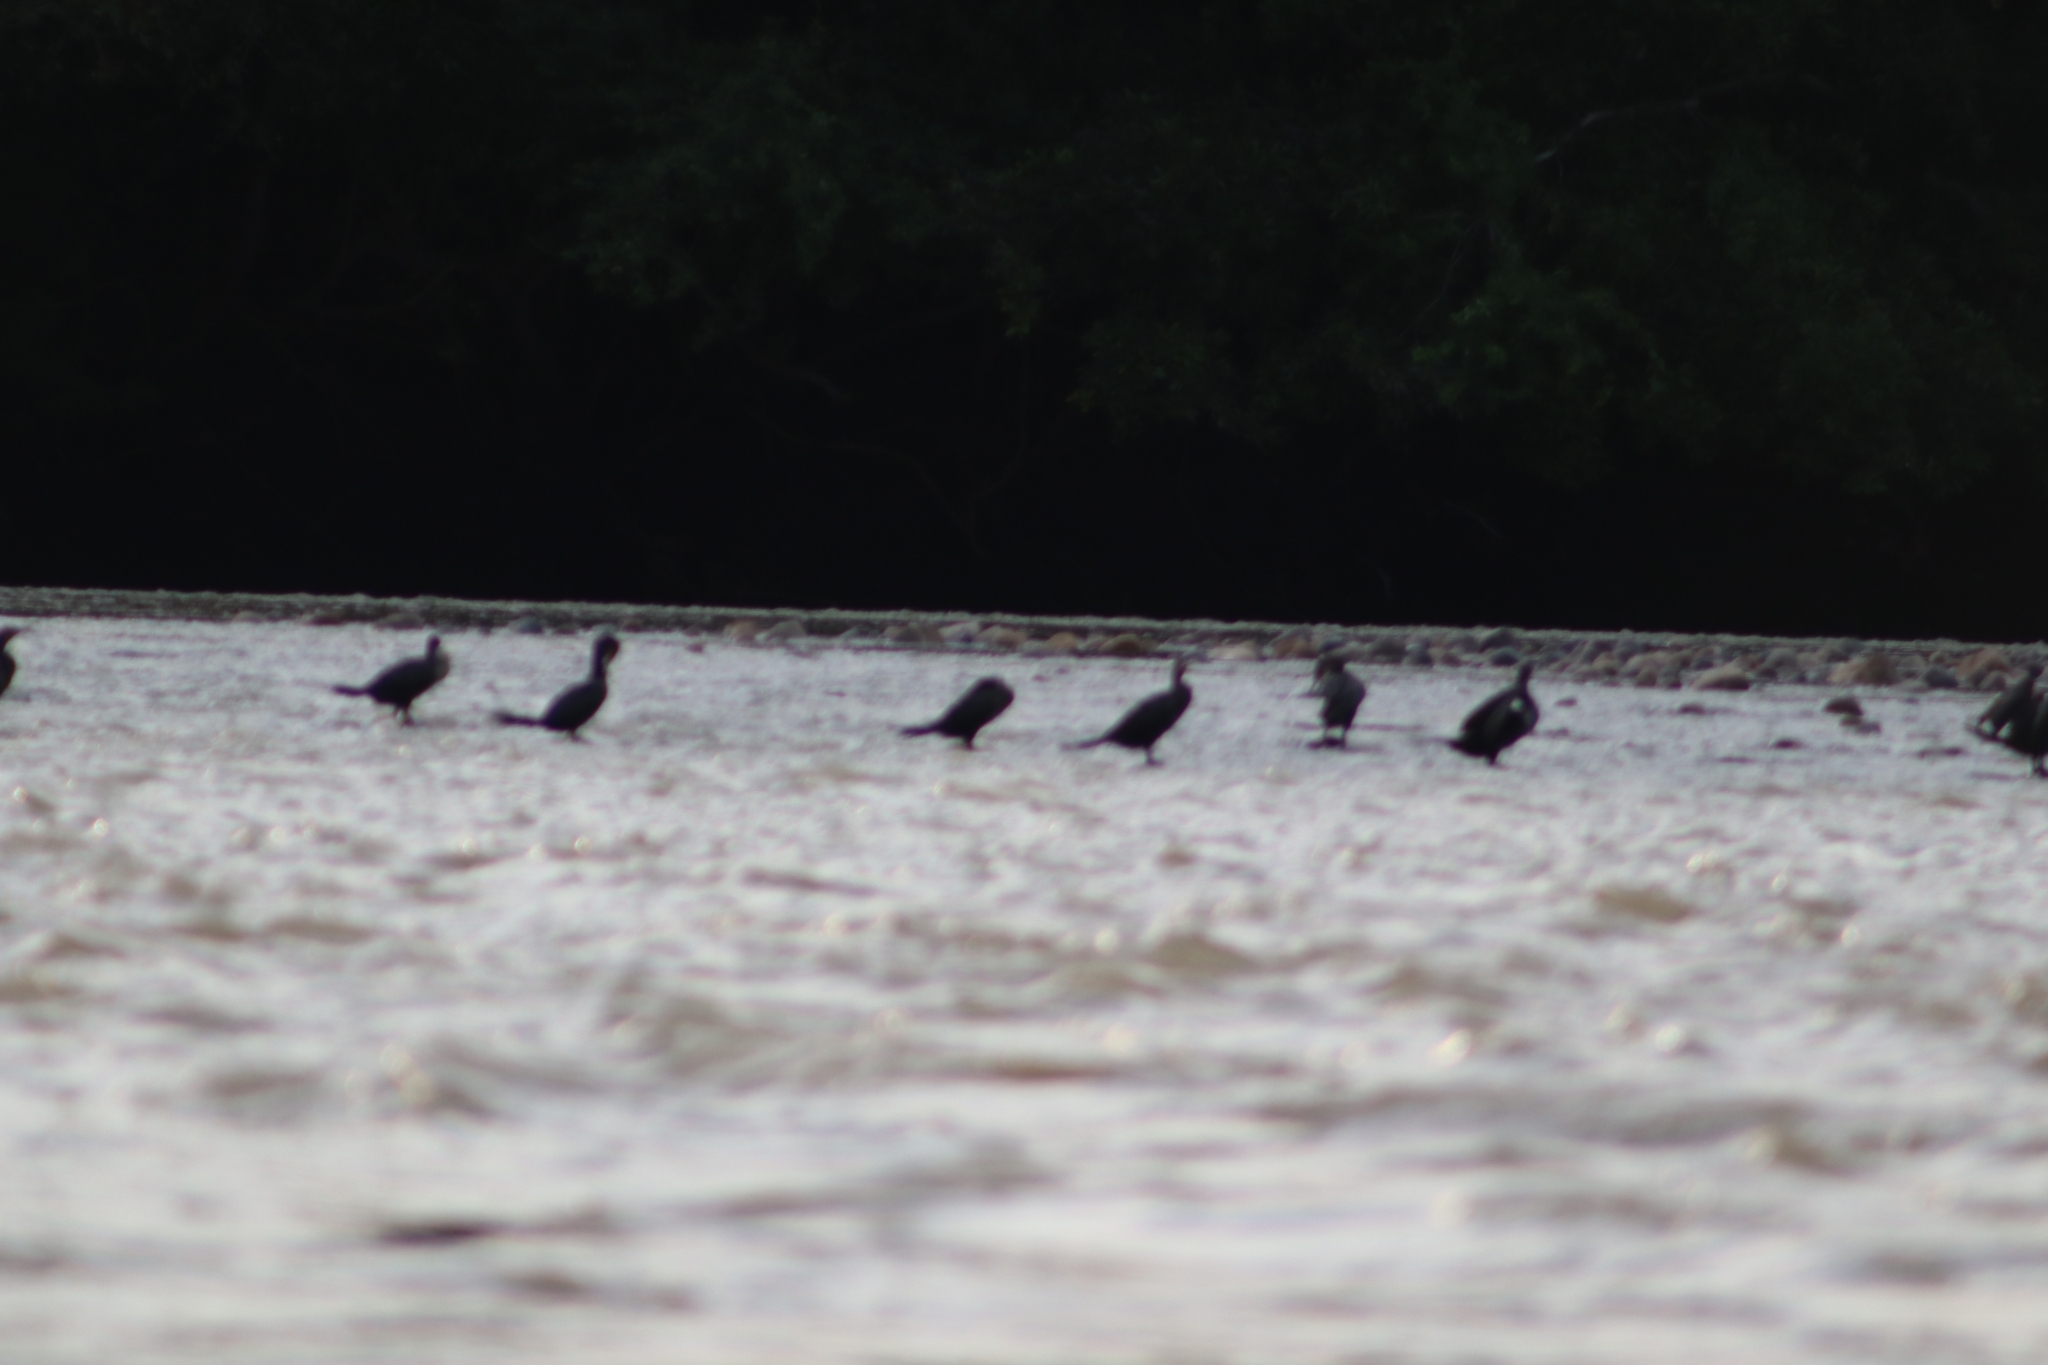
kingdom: Animalia
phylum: Chordata
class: Aves
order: Suliformes
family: Phalacrocoracidae
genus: Phalacrocorax
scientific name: Phalacrocorax brasilianus
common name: Neotropic cormorant
